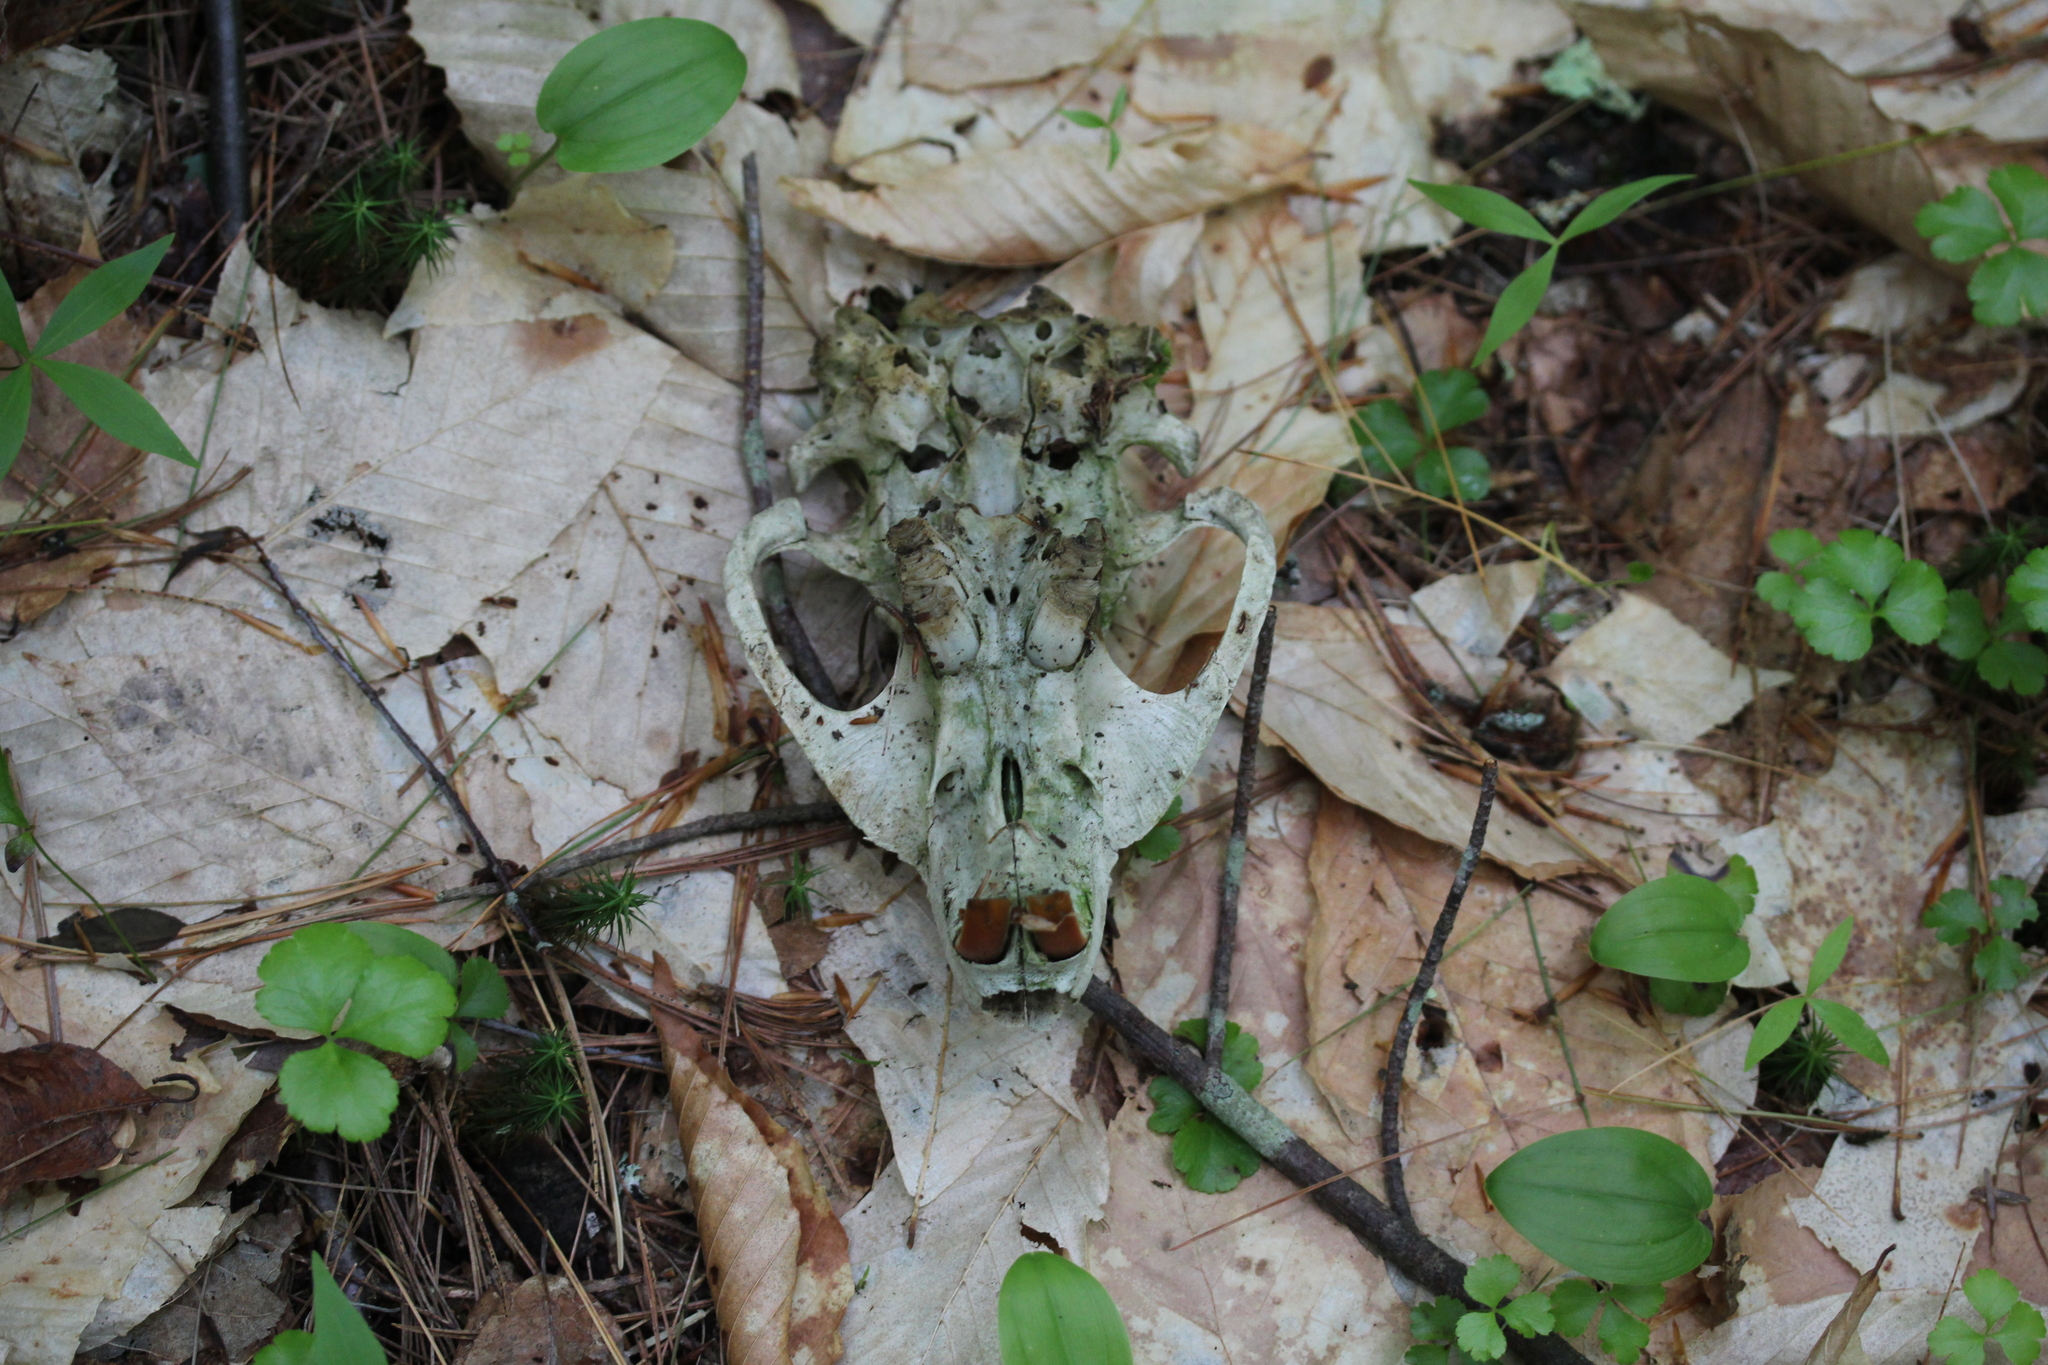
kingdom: Animalia
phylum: Chordata
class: Mammalia
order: Rodentia
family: Castoridae
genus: Castor
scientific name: Castor canadensis
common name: American beaver
